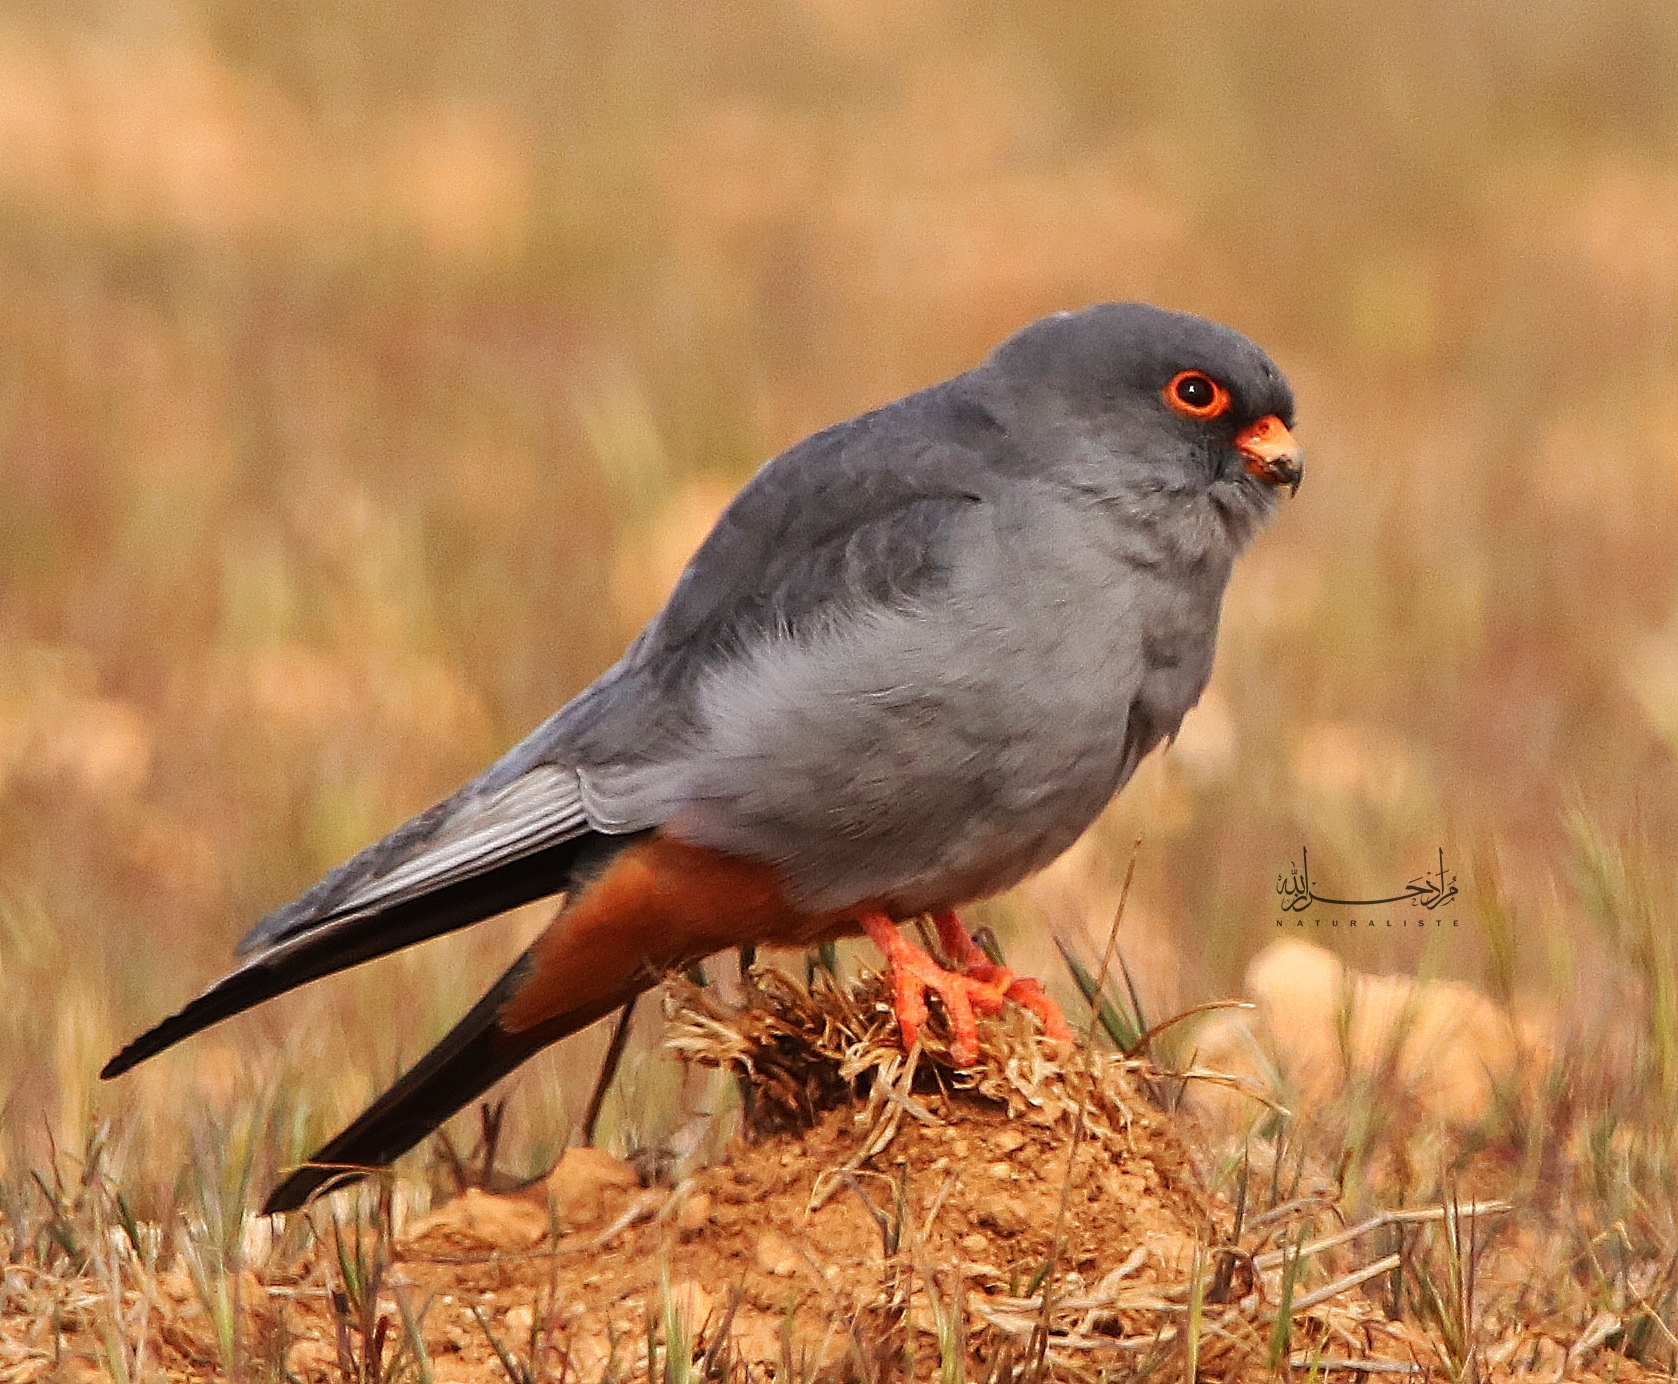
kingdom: Animalia
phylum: Chordata
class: Aves
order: Falconiformes
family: Falconidae
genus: Falco
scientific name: Falco vespertinus
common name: Red-footed falcon
